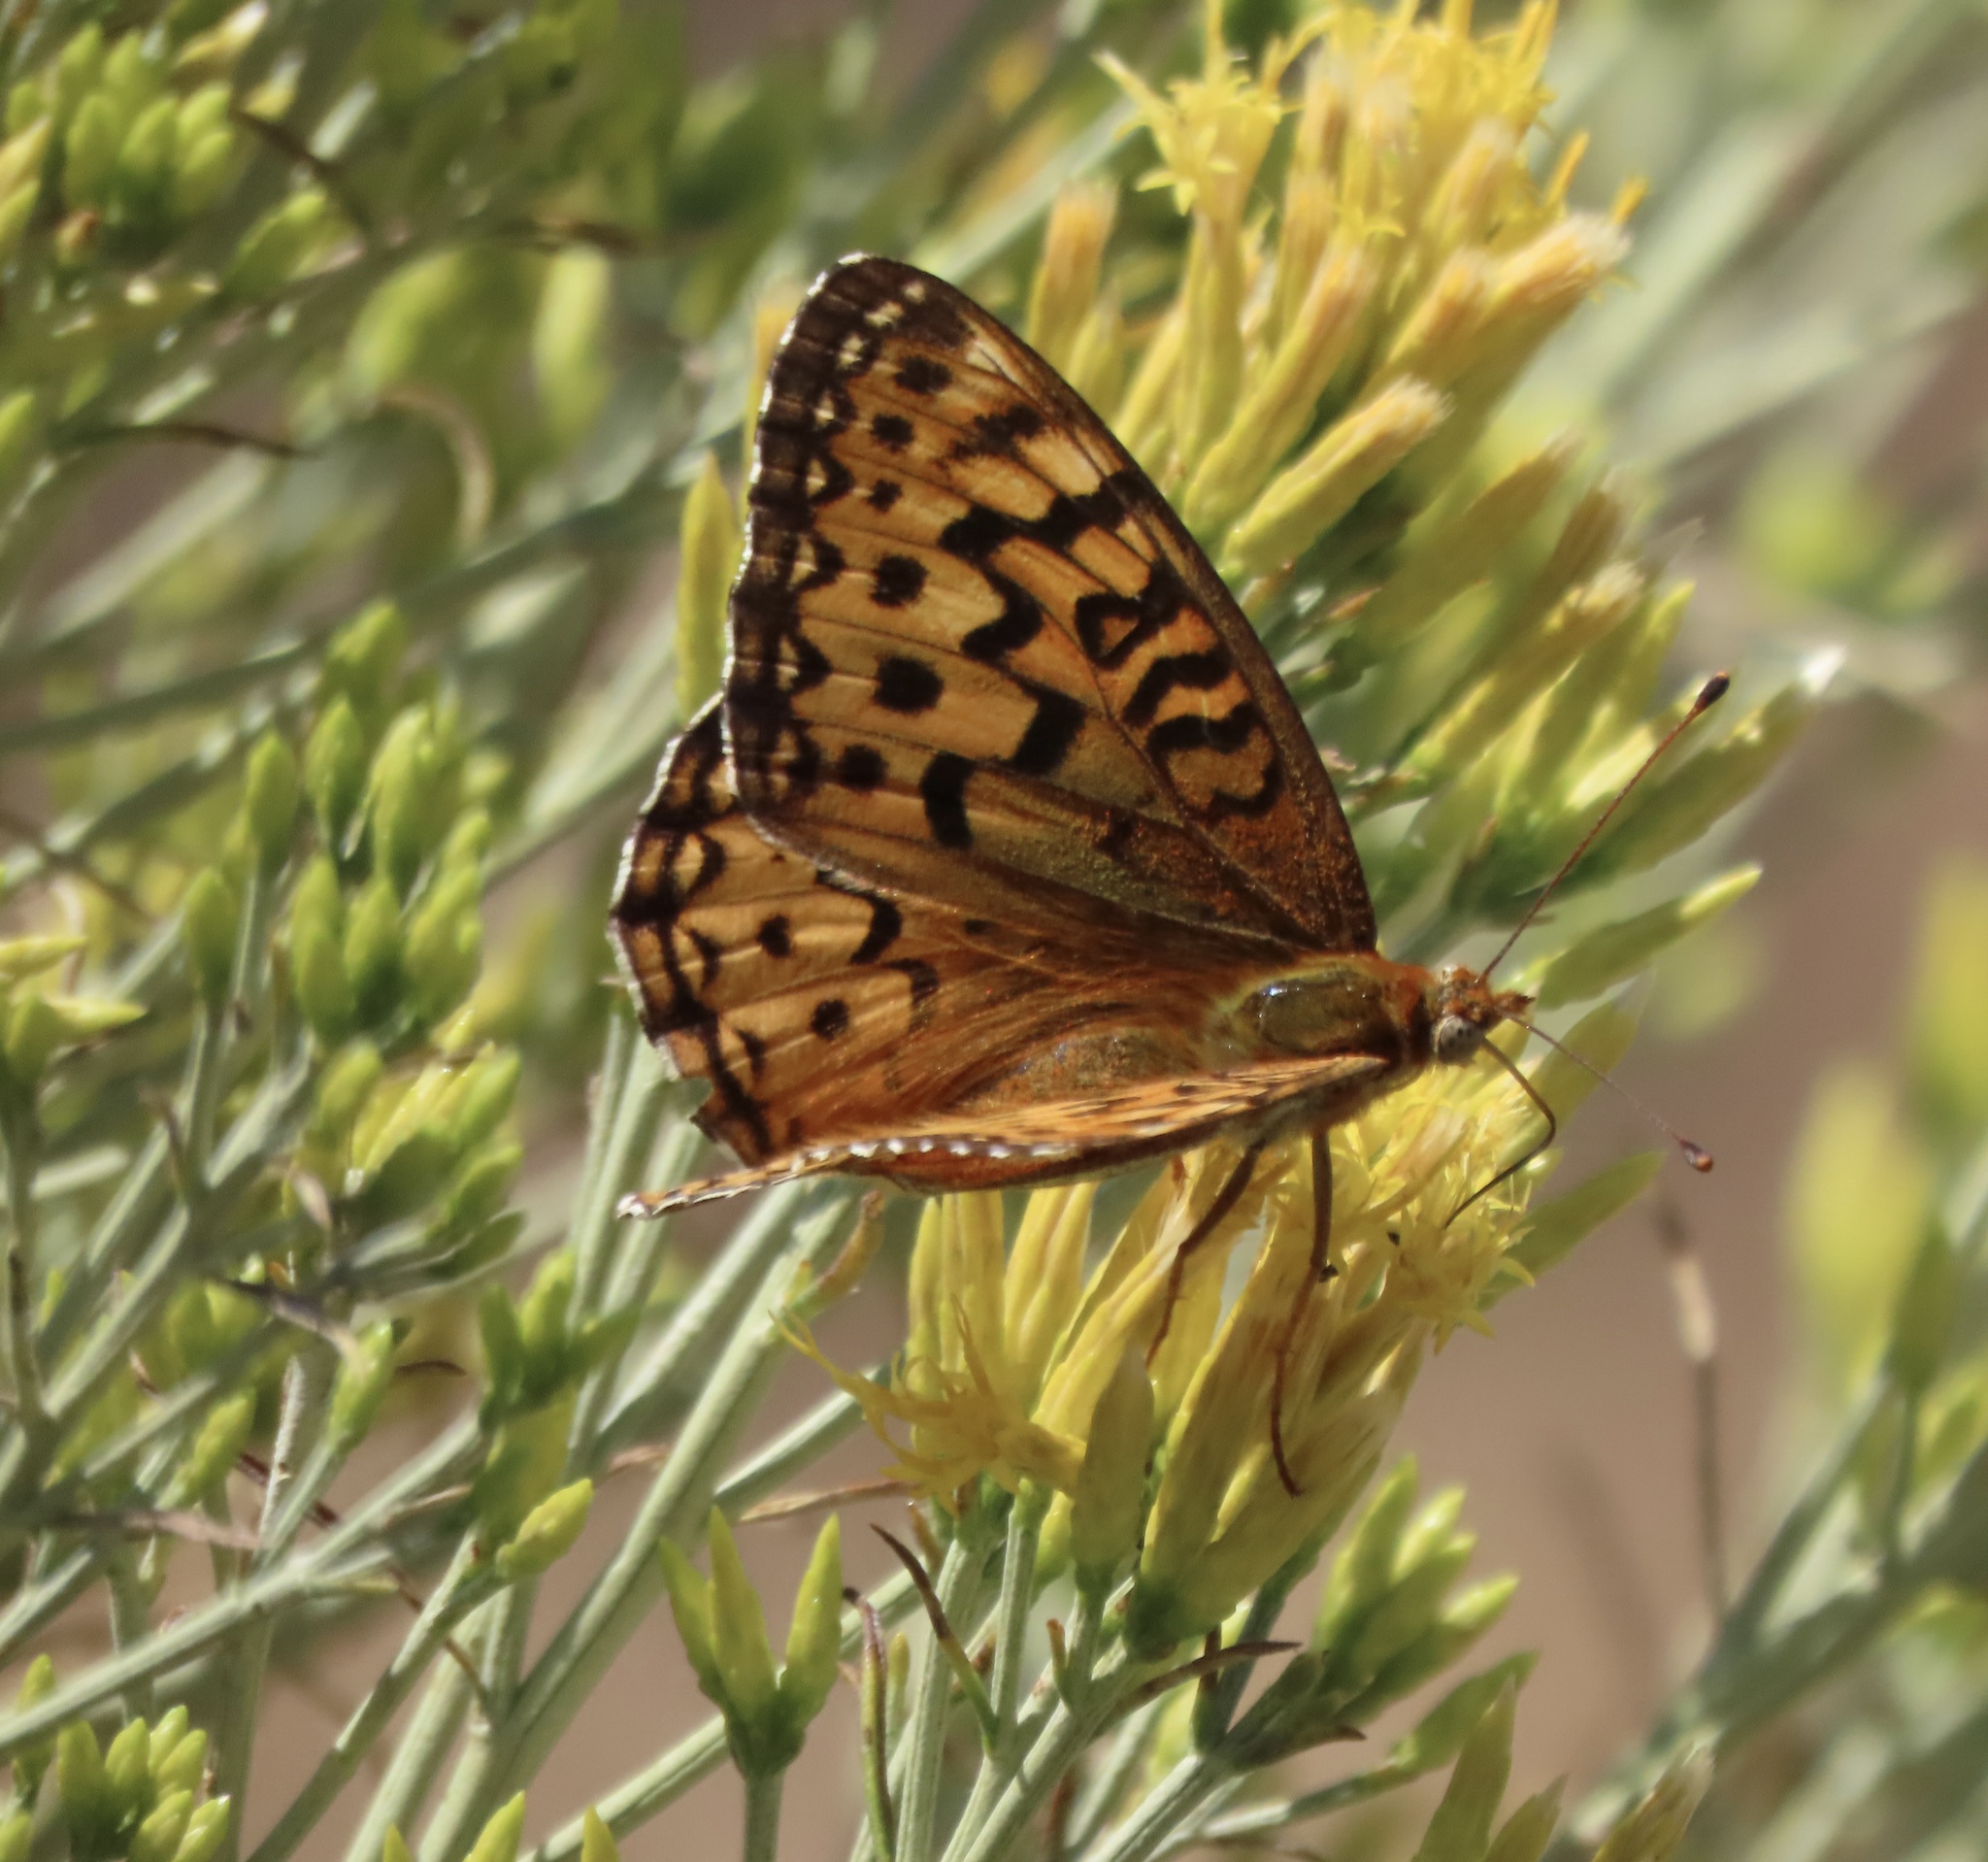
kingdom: Animalia
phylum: Arthropoda
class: Insecta
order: Lepidoptera
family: Nymphalidae
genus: Argynnis
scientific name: Argynnis coronis
